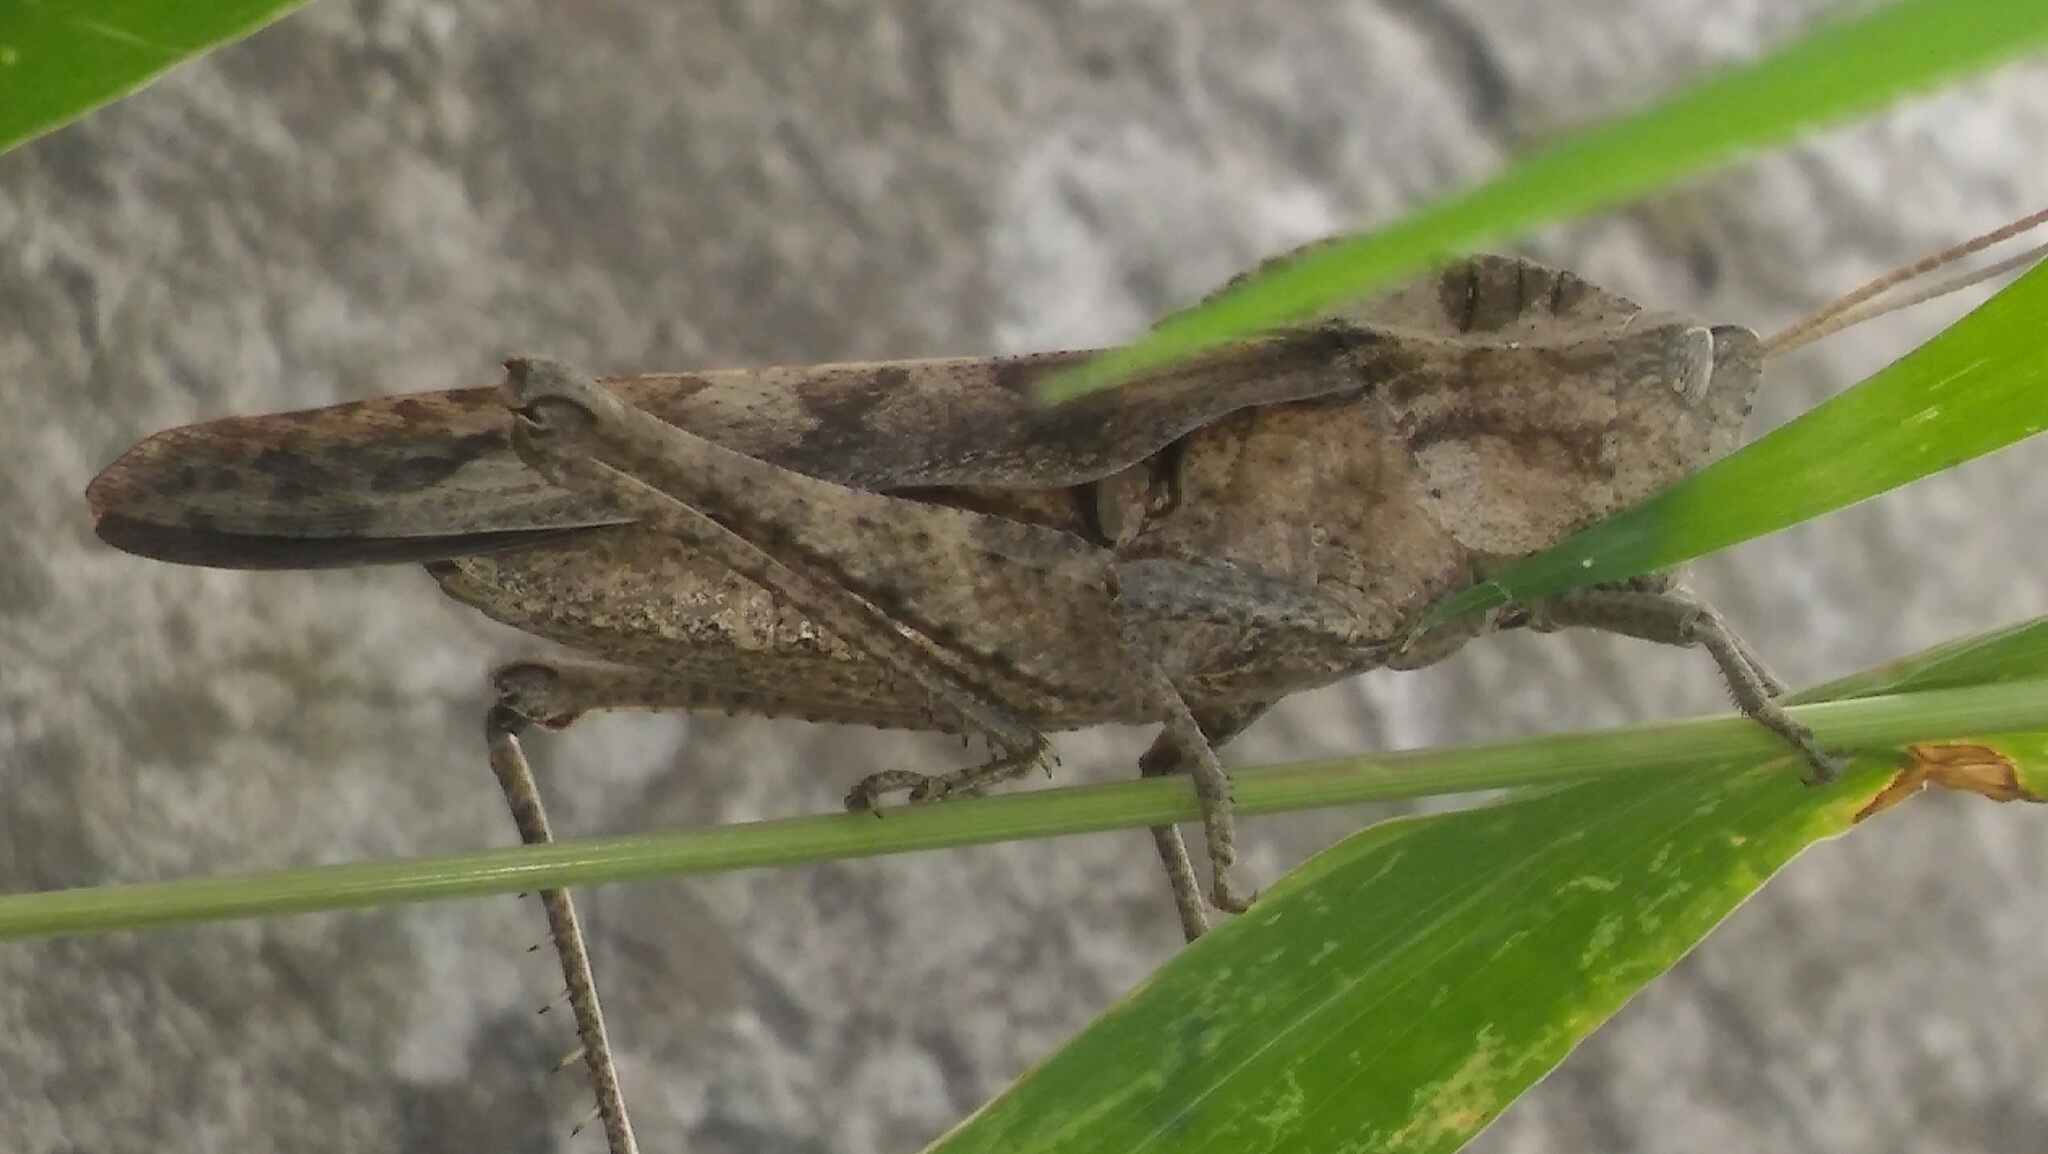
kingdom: Animalia
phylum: Arthropoda
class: Insecta
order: Orthoptera
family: Romaleidae
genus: Xyleus
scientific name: Xyleus discoideus
